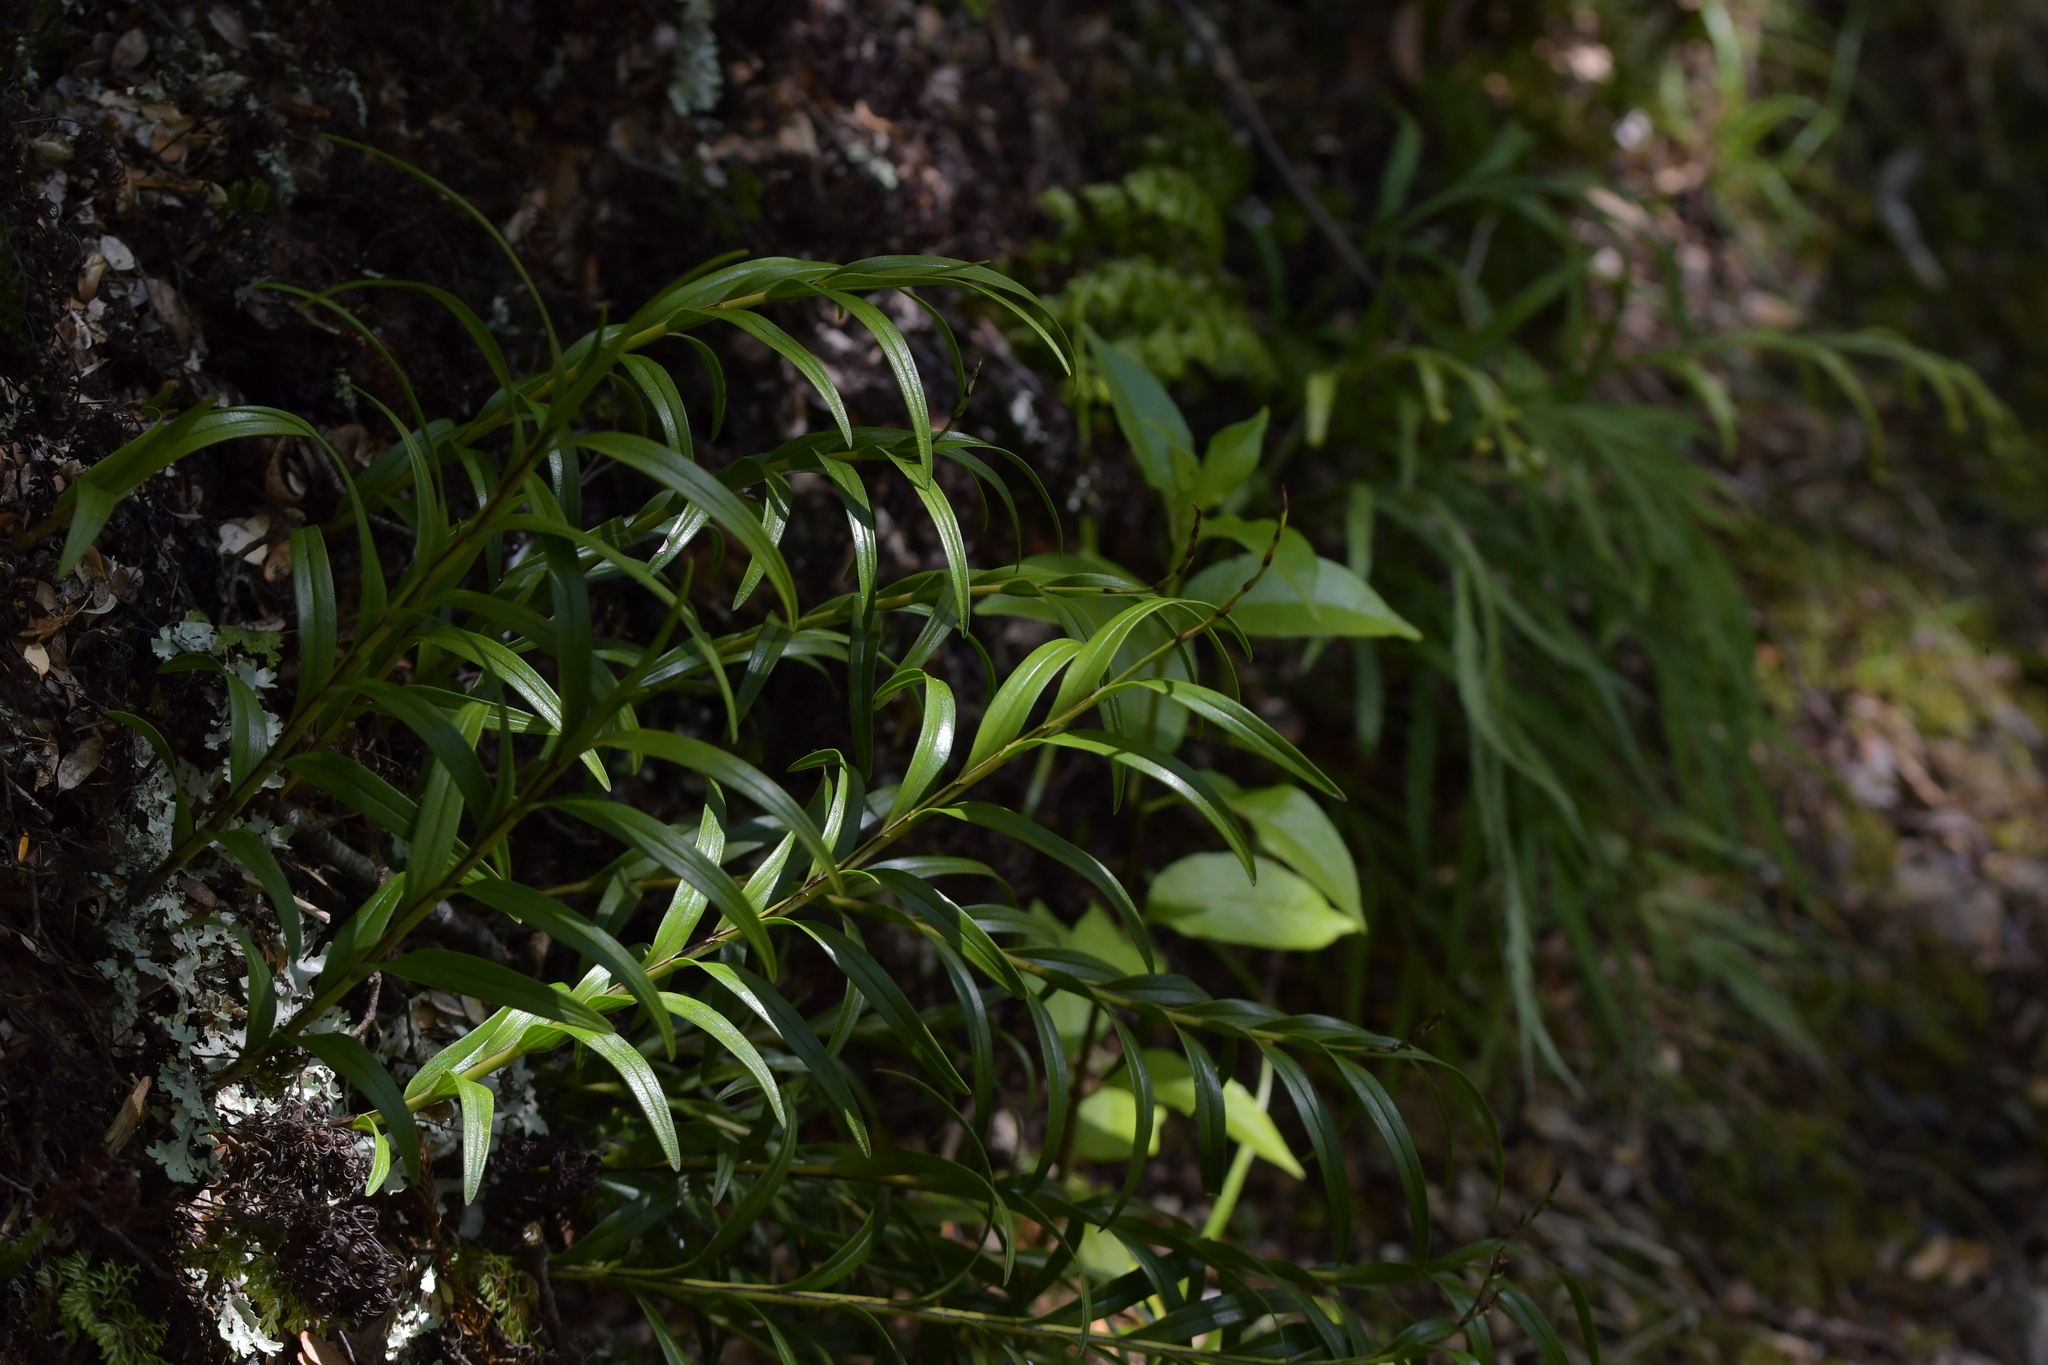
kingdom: Plantae
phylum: Tracheophyta
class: Liliopsida
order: Asparagales
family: Orchidaceae
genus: Earina
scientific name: Earina autumnalis
